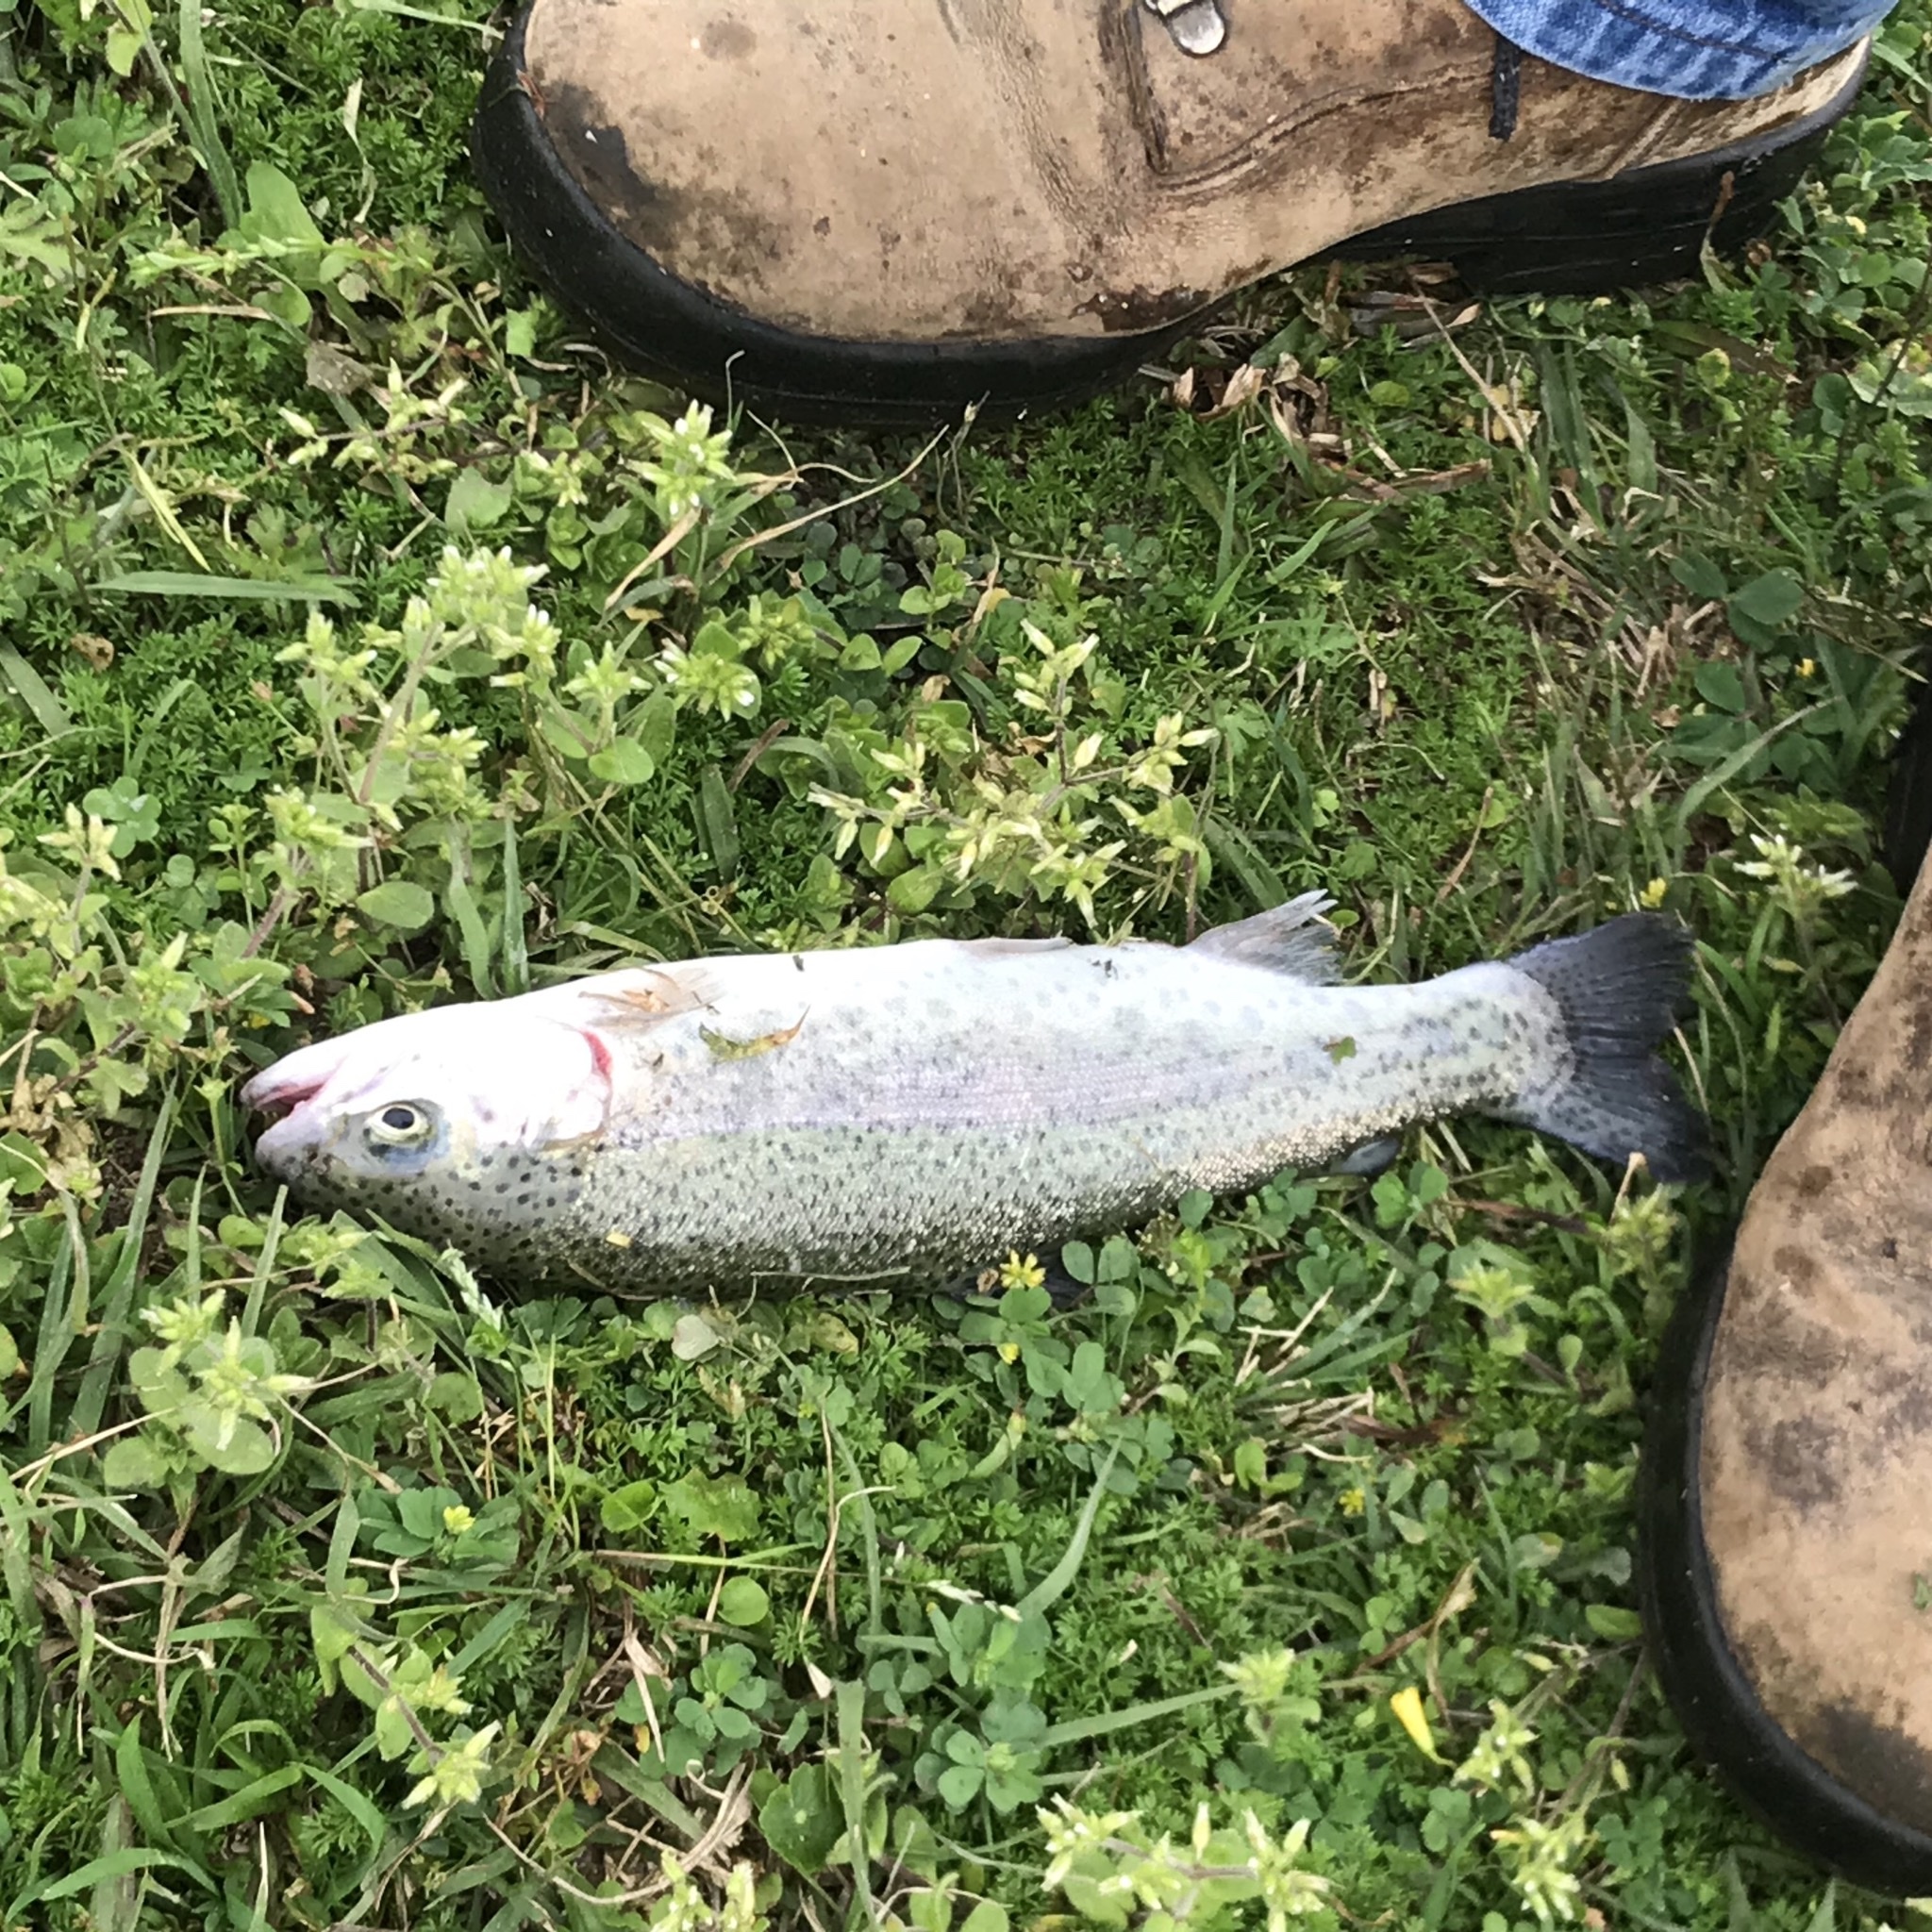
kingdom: Animalia
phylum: Chordata
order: Salmoniformes
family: Salmonidae
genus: Oncorhynchus
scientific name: Oncorhynchus mykiss
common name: Rainbow trout
